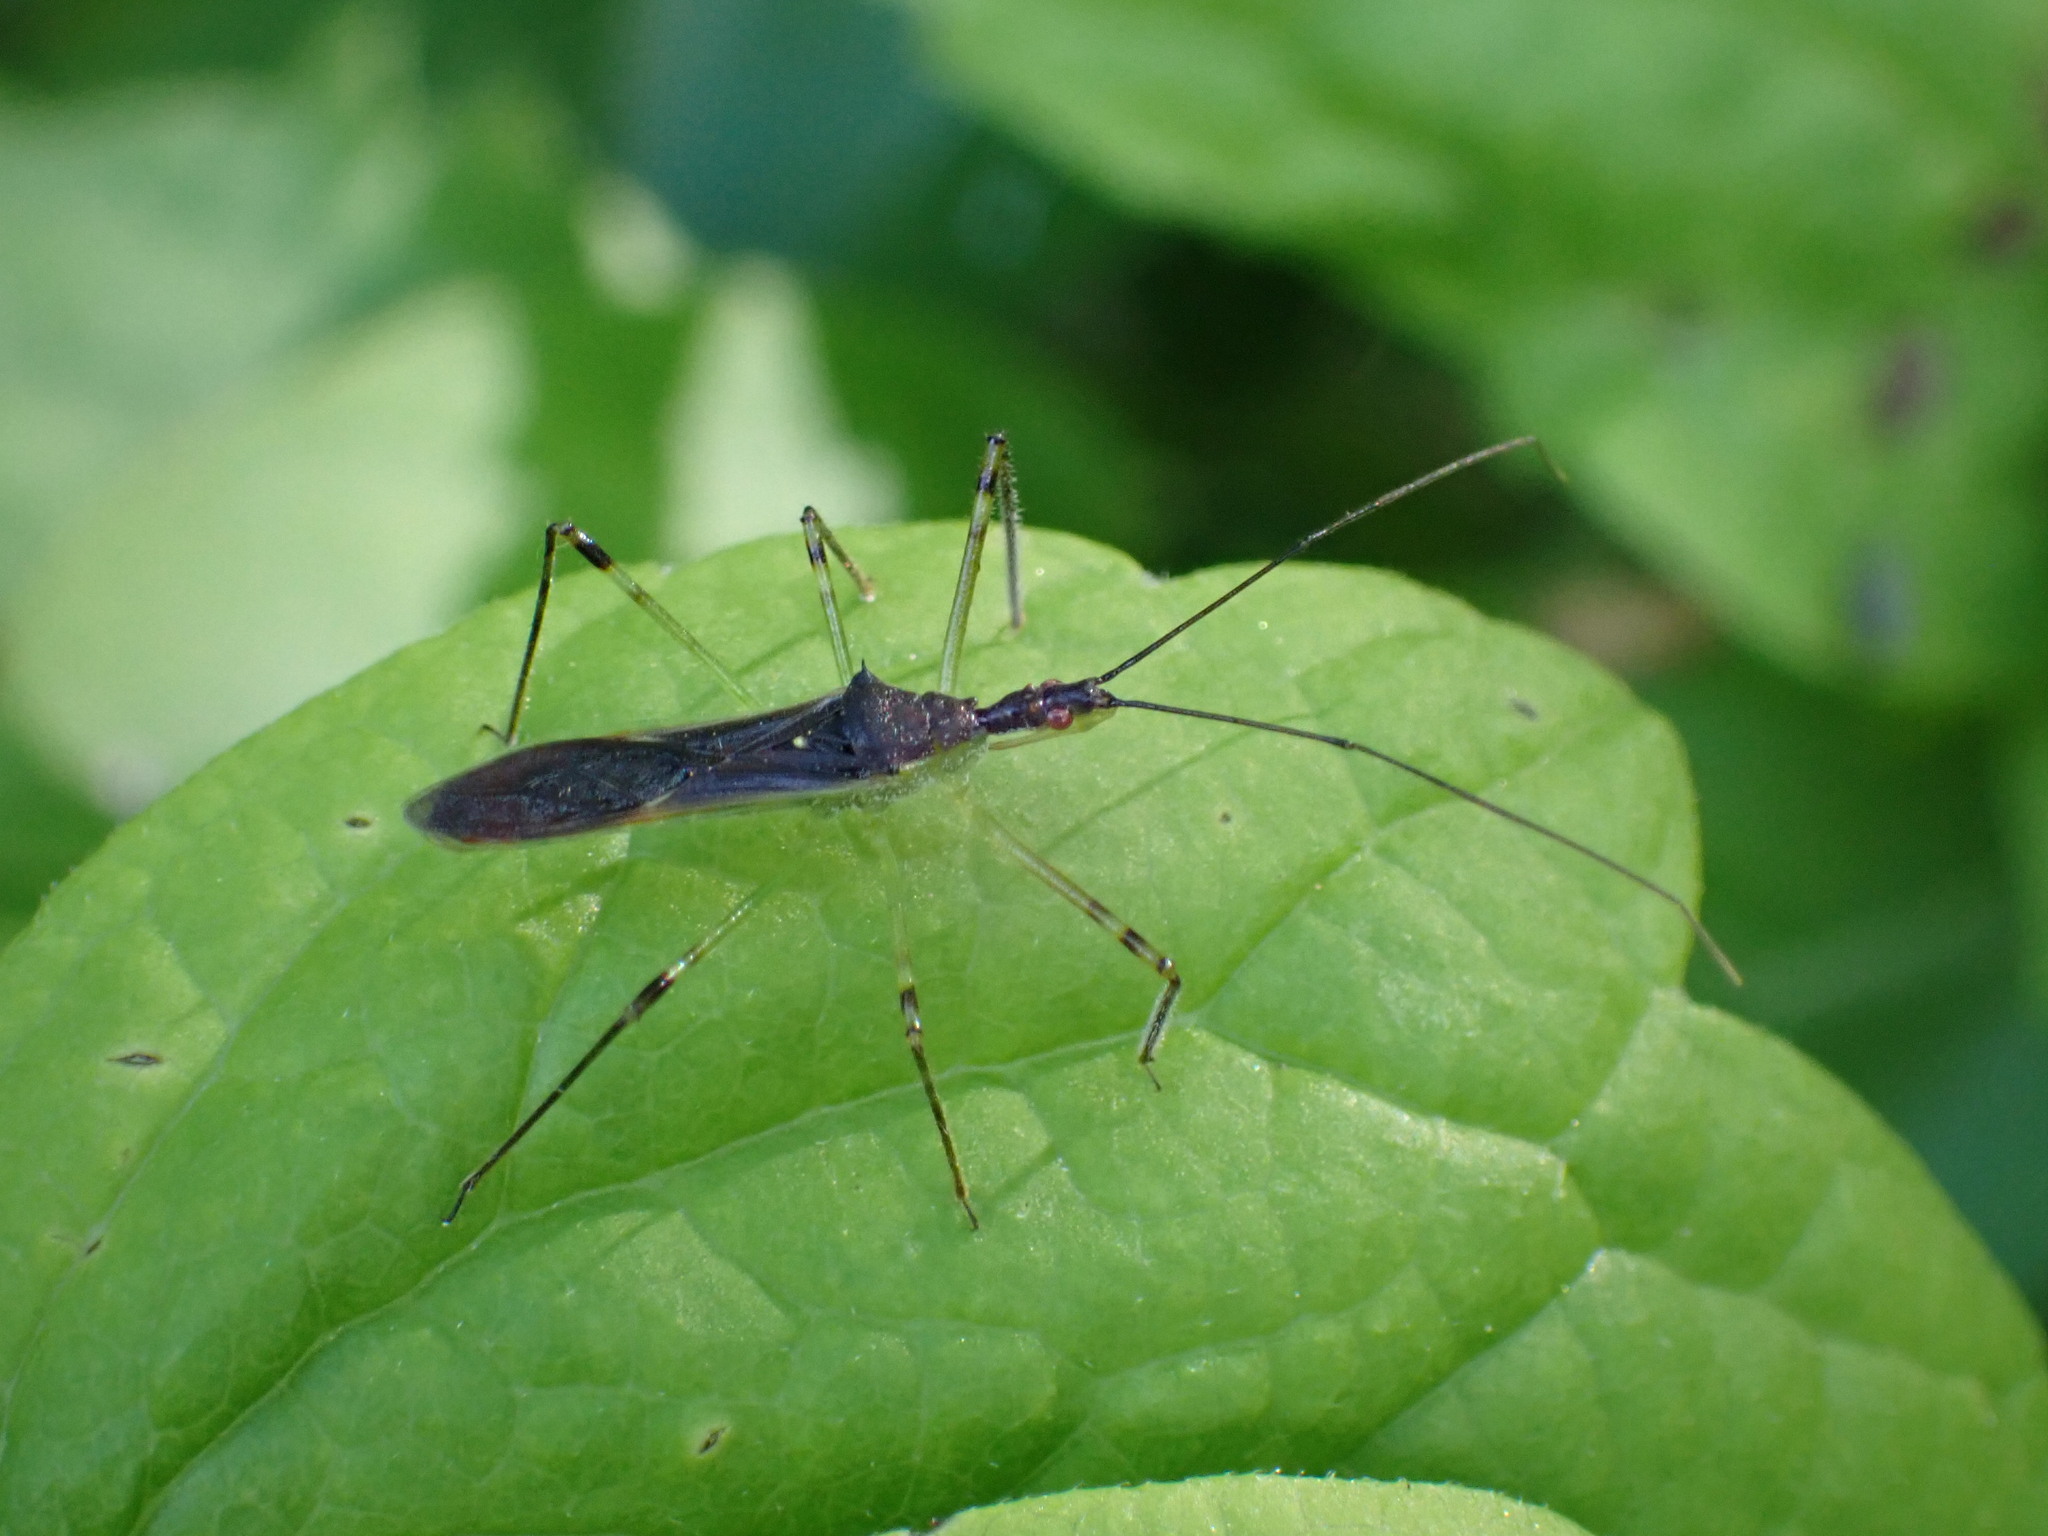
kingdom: Animalia
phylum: Arthropoda
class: Insecta
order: Hemiptera
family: Reduviidae
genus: Zelus
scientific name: Zelus luridus
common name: Pale green assassin bug
